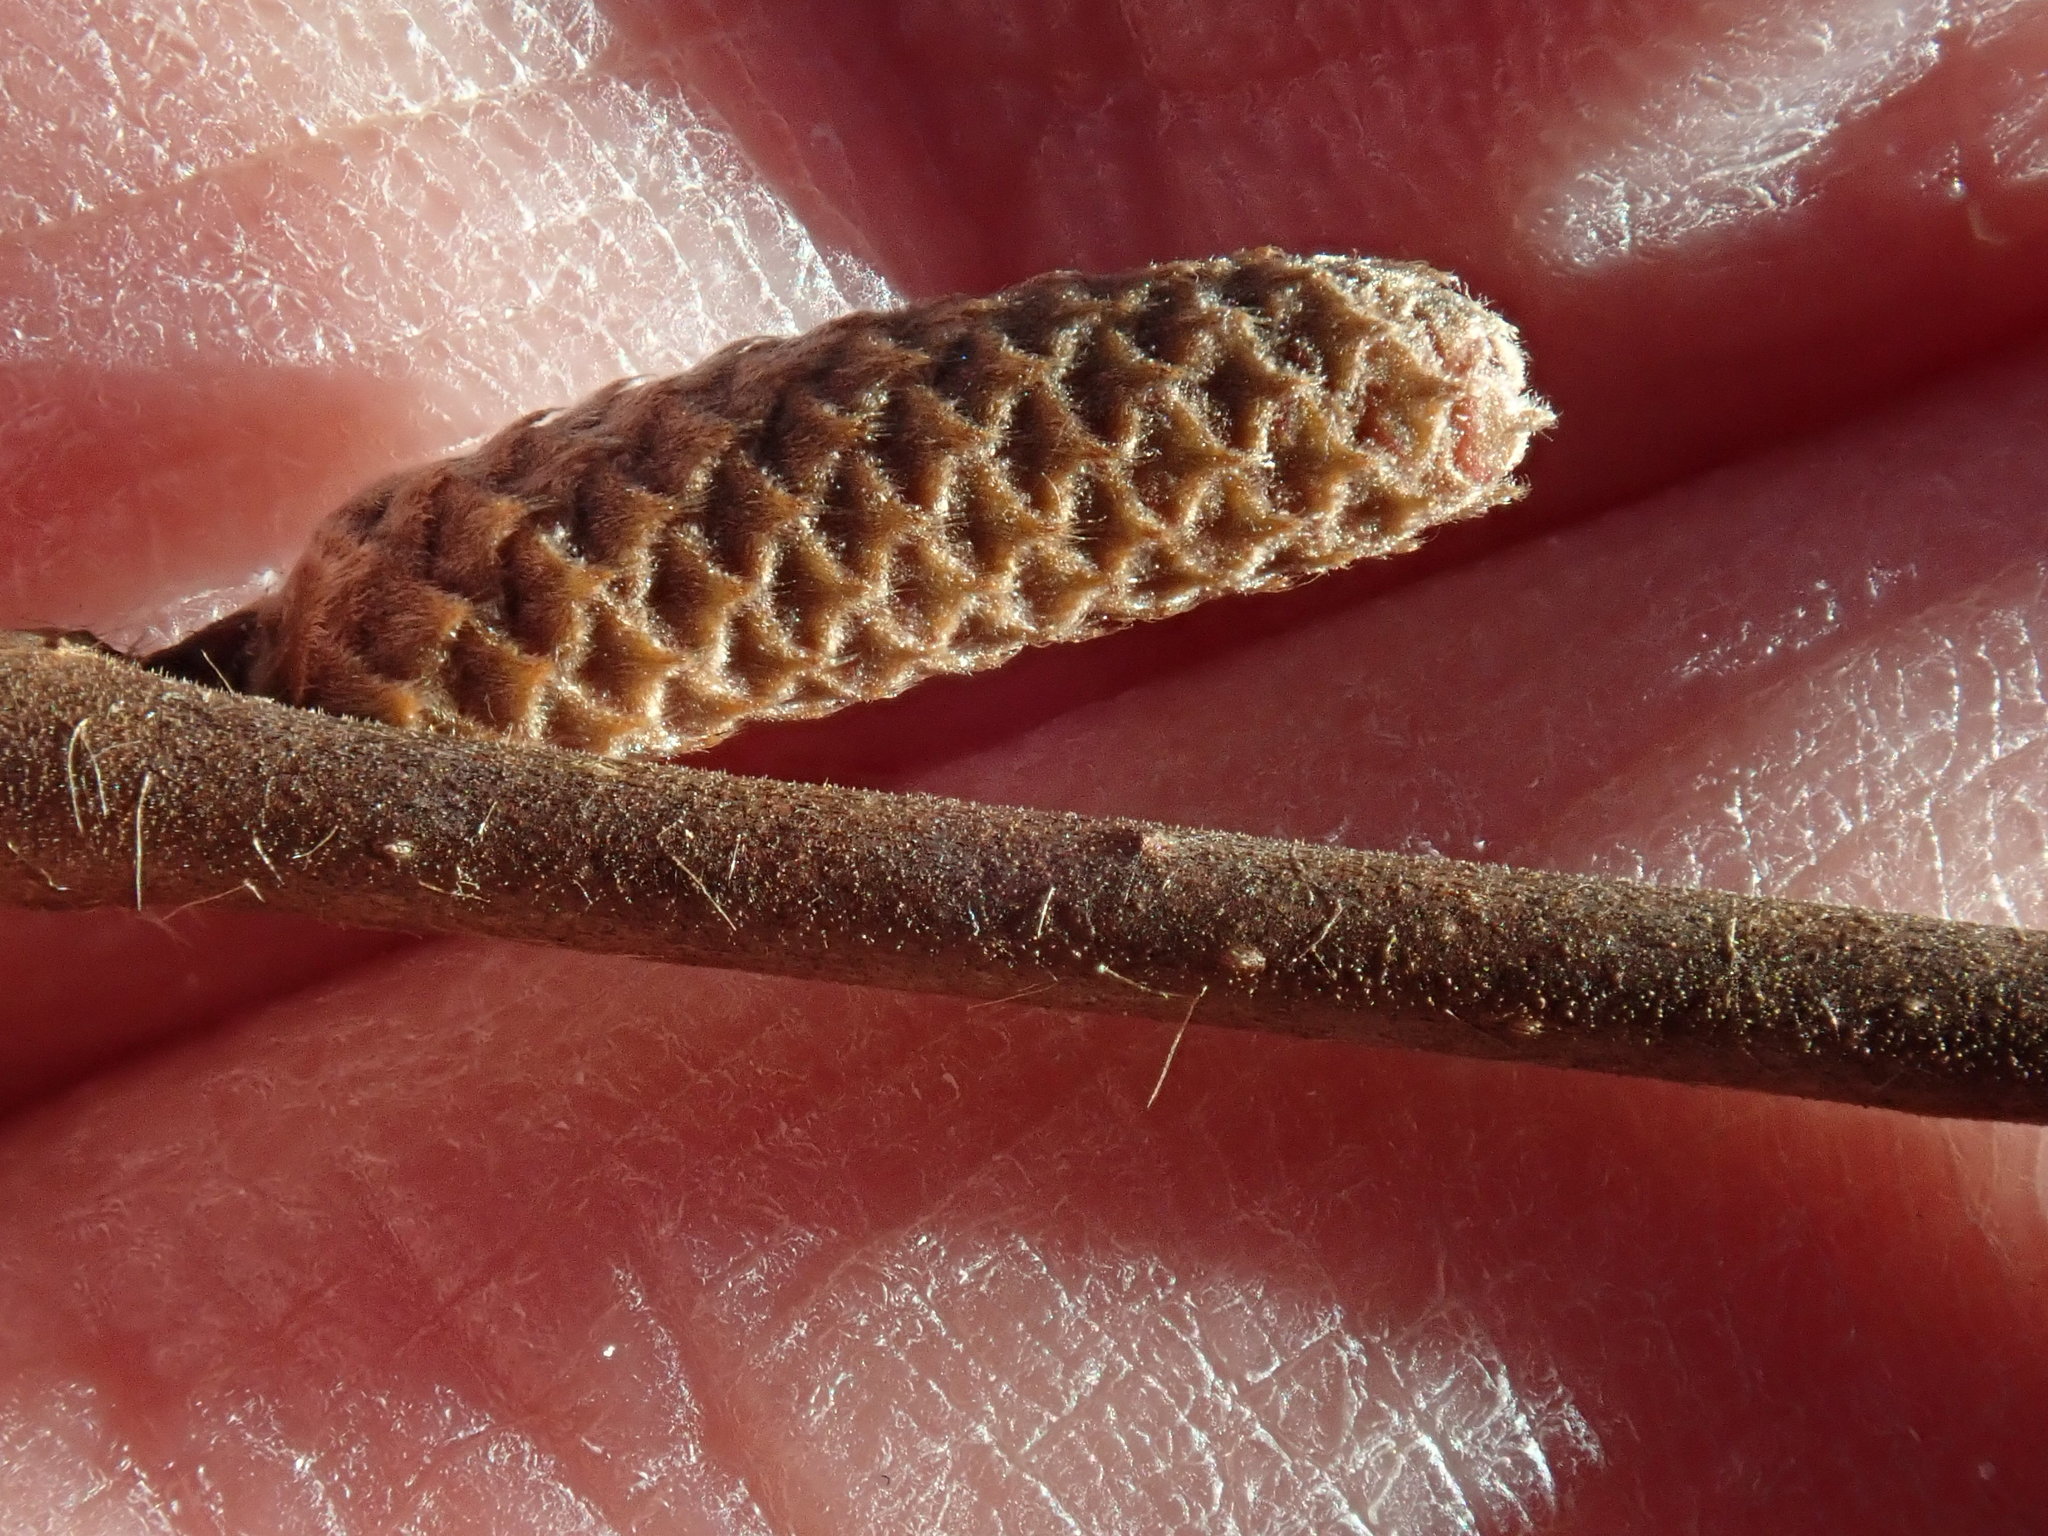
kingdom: Plantae
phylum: Tracheophyta
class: Magnoliopsida
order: Fagales
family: Betulaceae
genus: Corylus
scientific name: Corylus cornuta
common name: Beaked hazel
